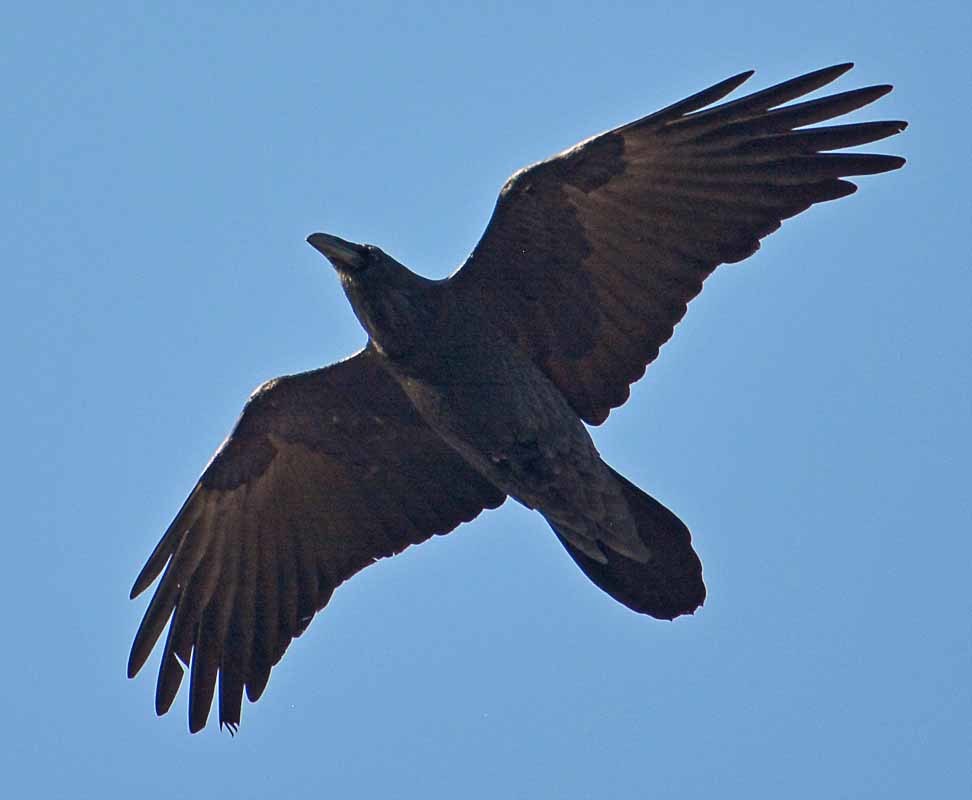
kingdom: Animalia
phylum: Chordata
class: Aves
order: Passeriformes
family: Corvidae
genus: Corvus
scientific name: Corvus corax
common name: Common raven
